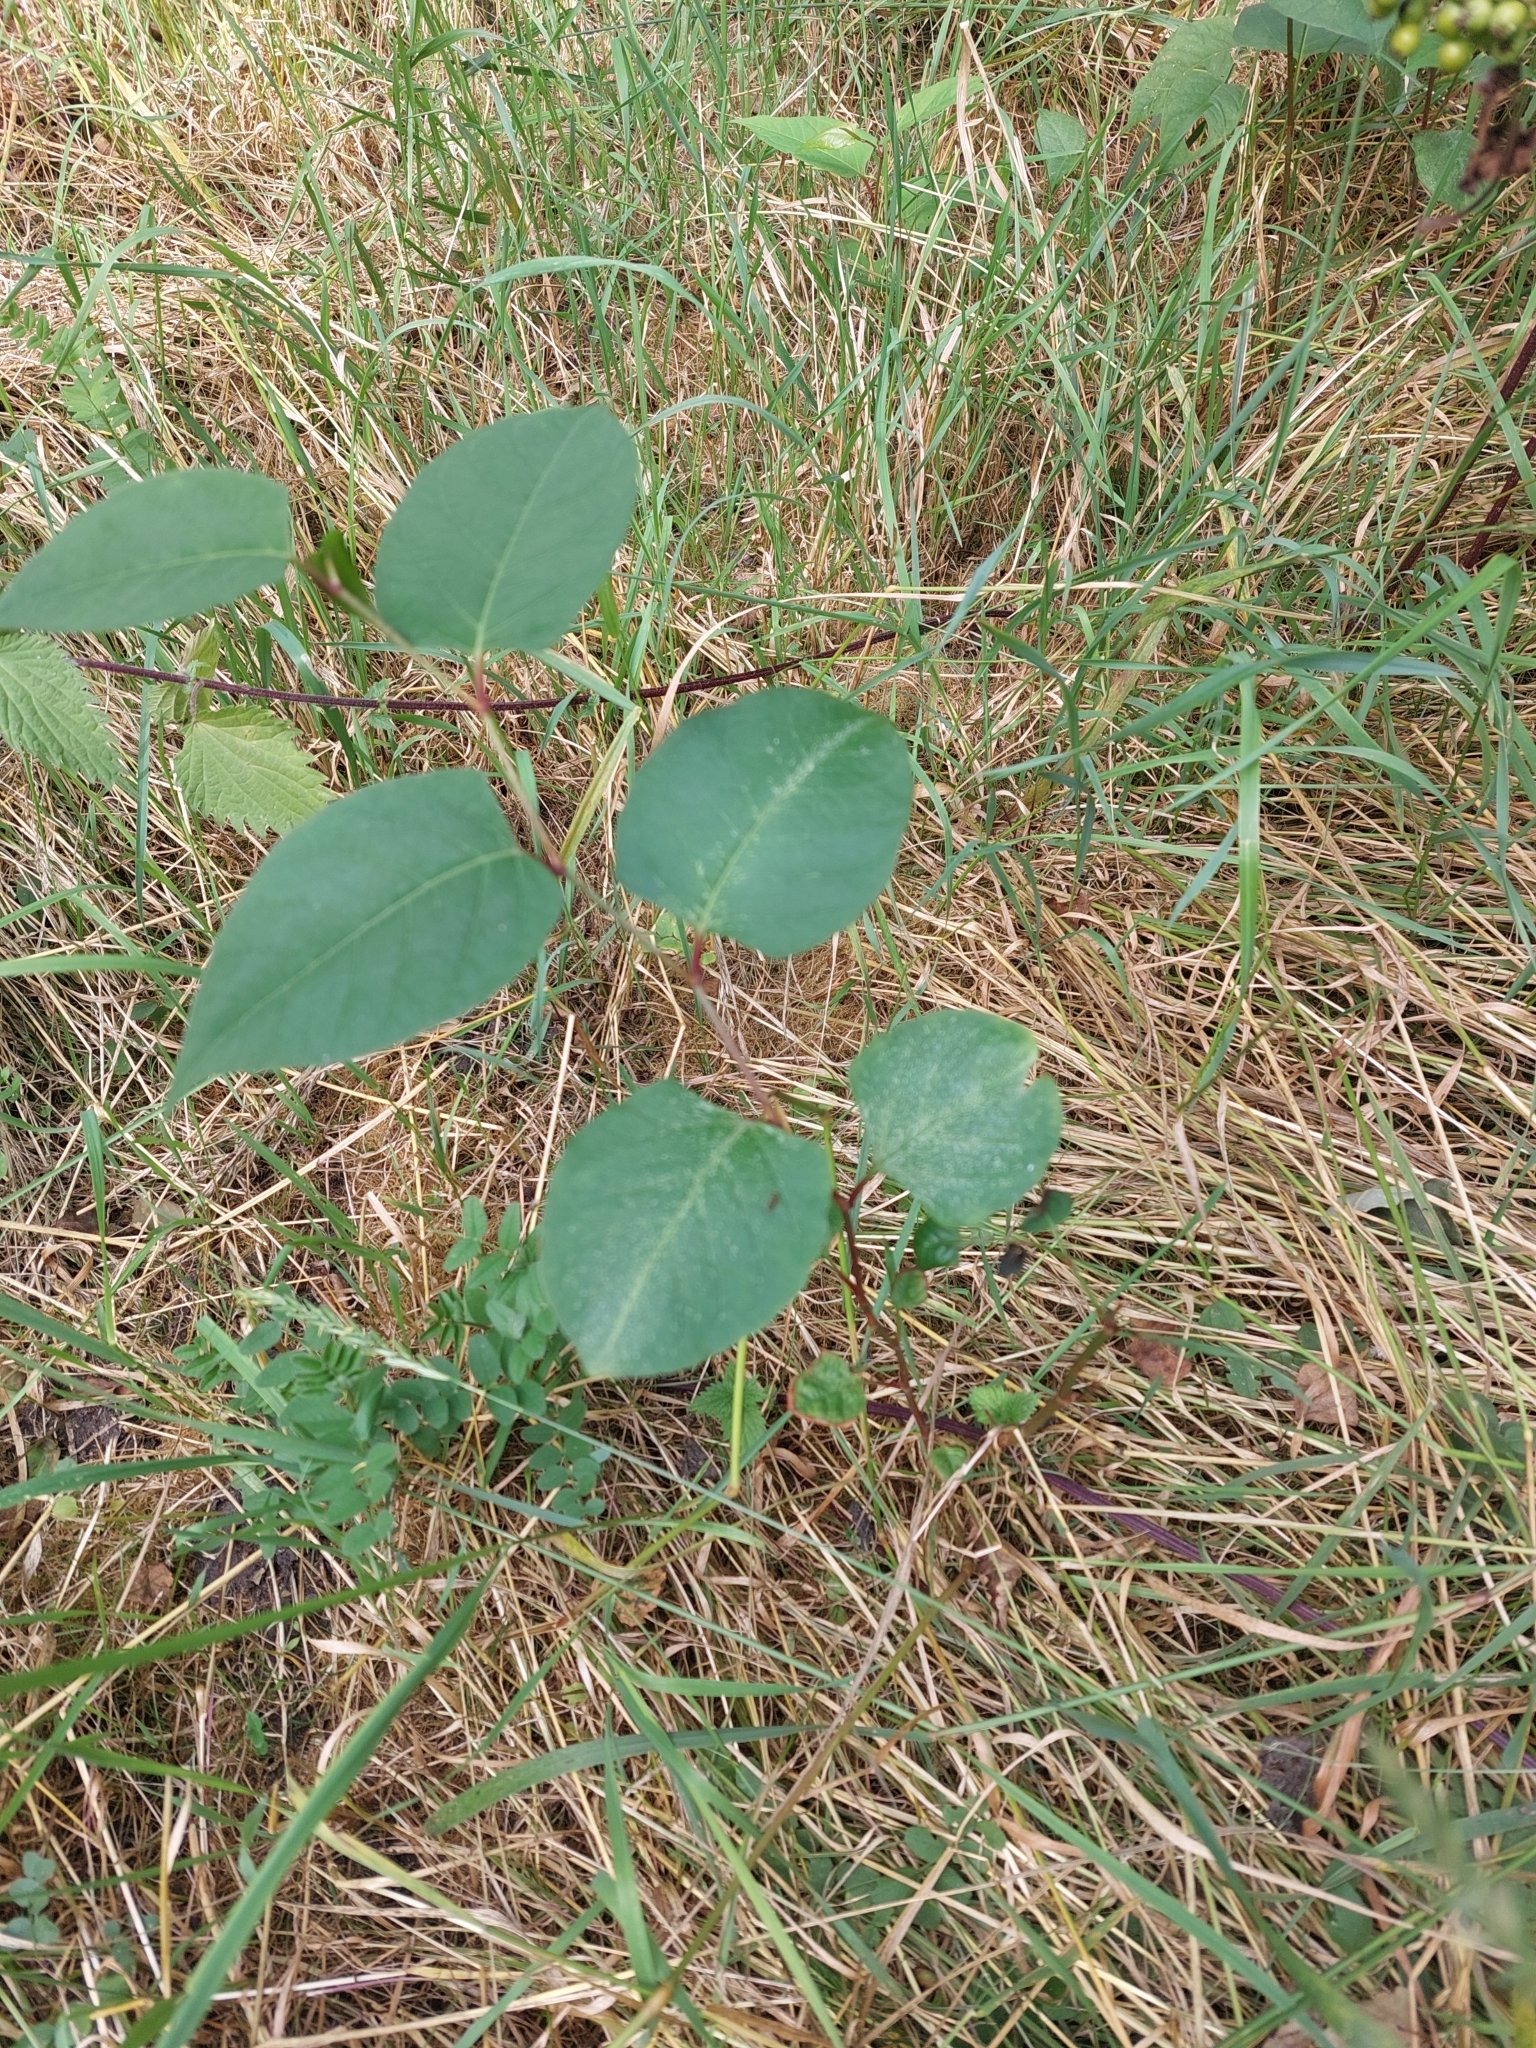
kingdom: Plantae
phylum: Tracheophyta
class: Magnoliopsida
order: Caryophyllales
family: Polygonaceae
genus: Reynoutria
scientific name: Reynoutria japonica
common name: Japanese knotweed
